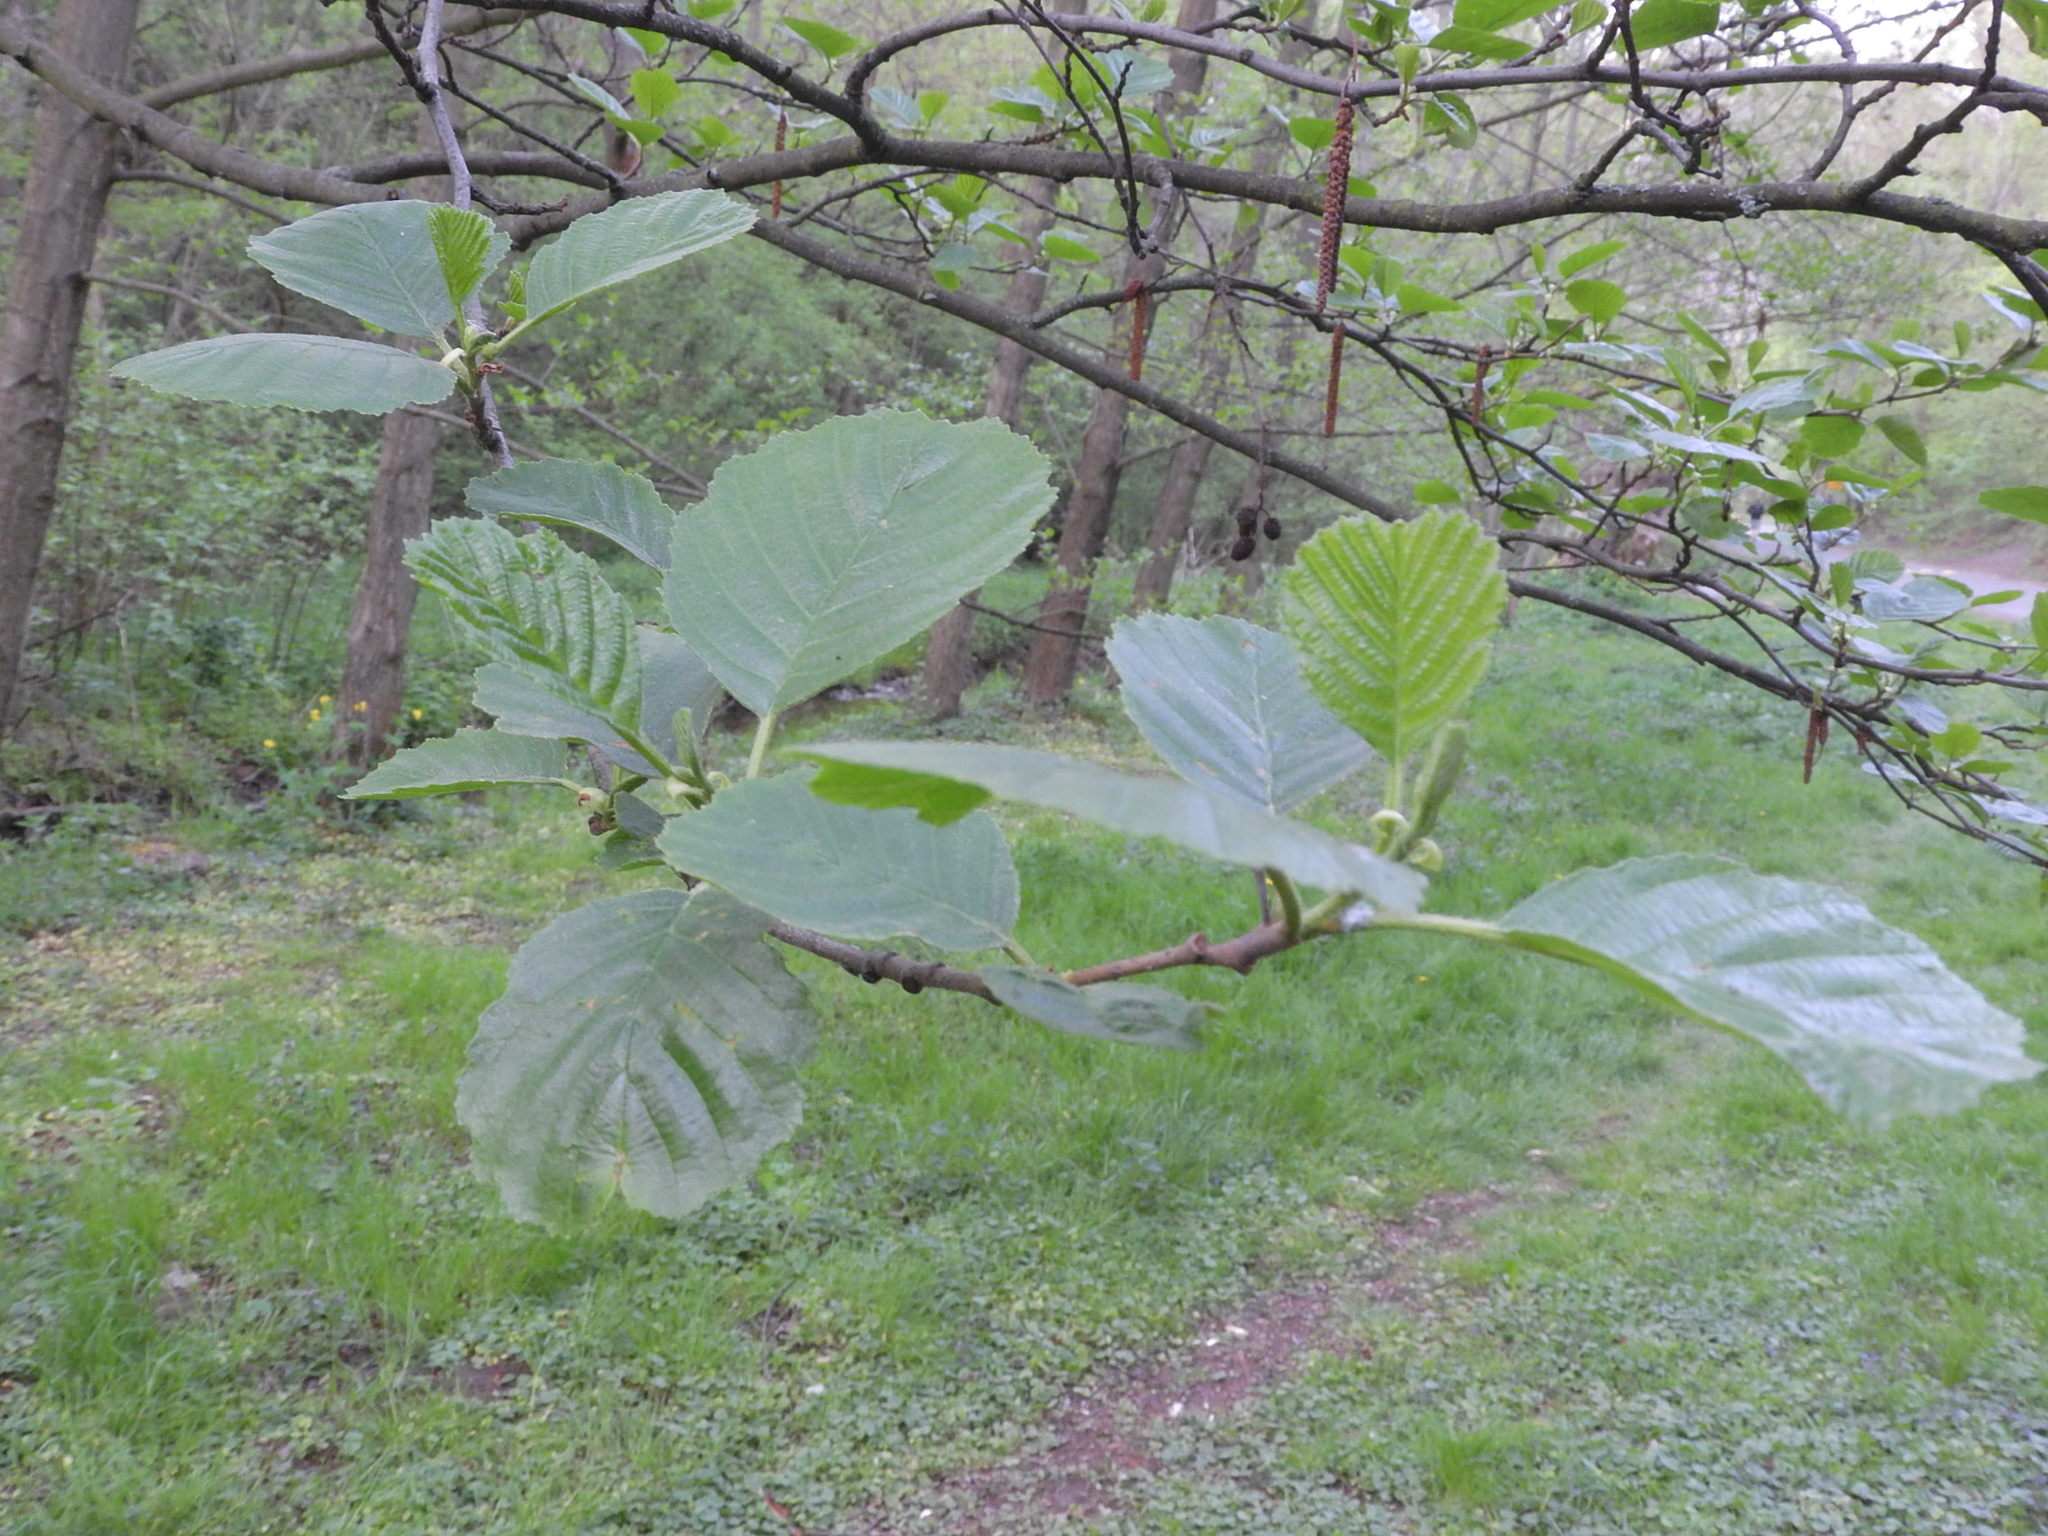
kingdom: Plantae
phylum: Tracheophyta
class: Magnoliopsida
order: Fagales
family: Betulaceae
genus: Alnus
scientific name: Alnus glutinosa
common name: Black alder
